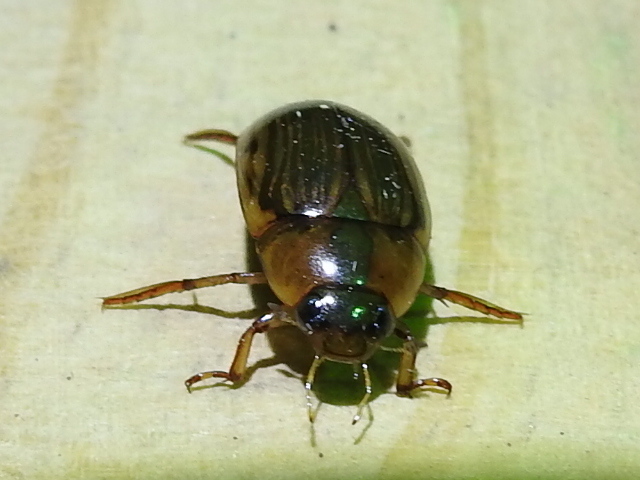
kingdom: Animalia
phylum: Arthropoda
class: Insecta
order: Coleoptera
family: Hydrophilidae
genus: Tropisternus
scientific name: Tropisternus collaris
